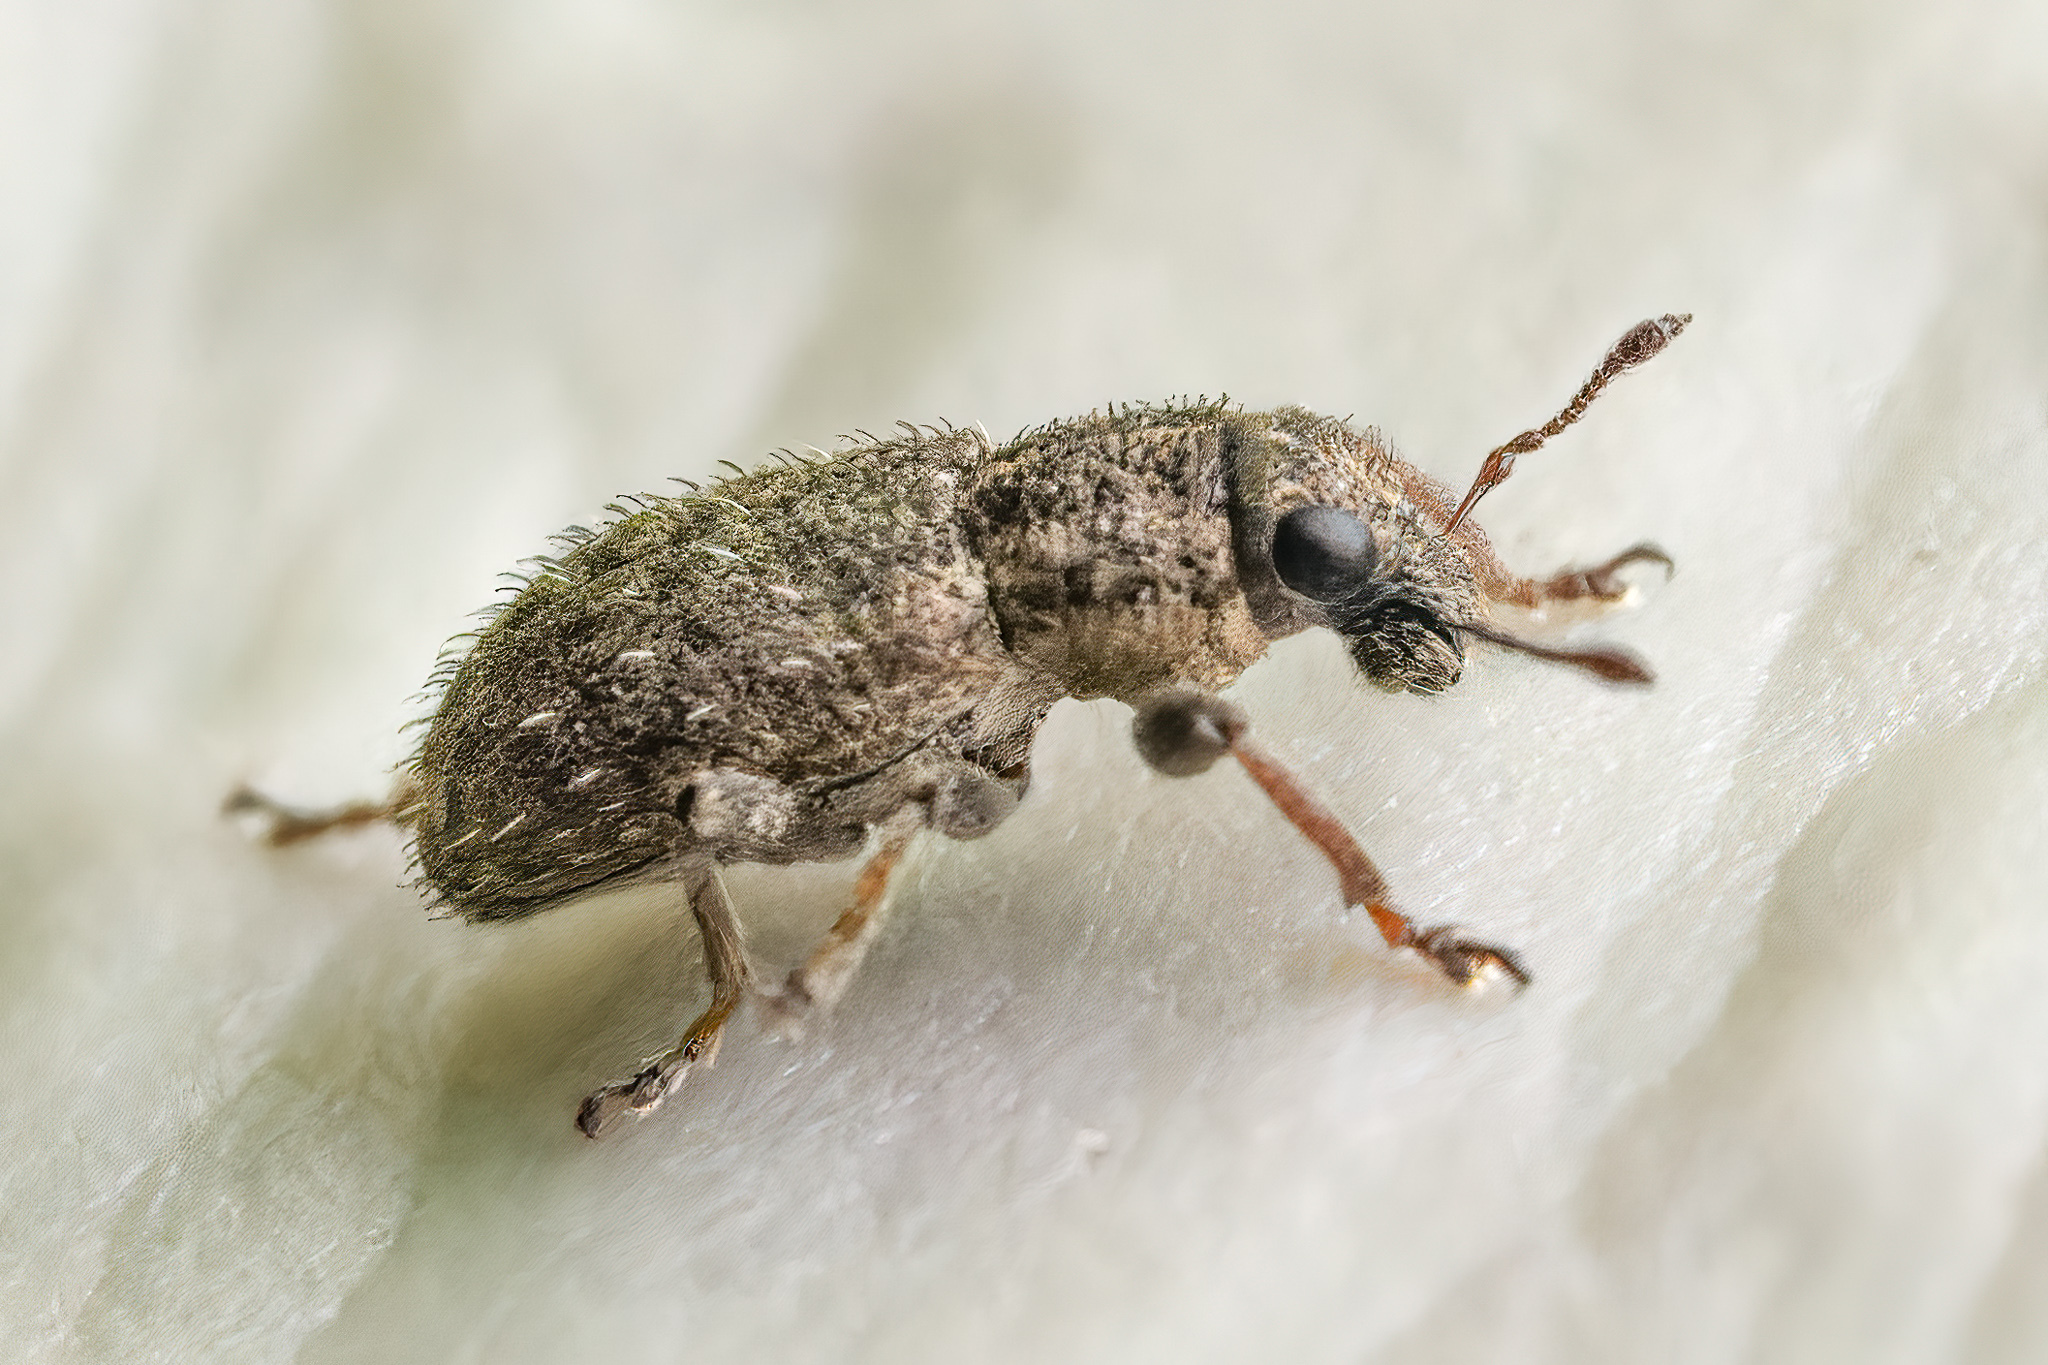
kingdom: Animalia
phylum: Arthropoda
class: Insecta
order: Coleoptera
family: Curculionidae
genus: Sitona
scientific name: Sitona hispidulus
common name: Clover weevil
